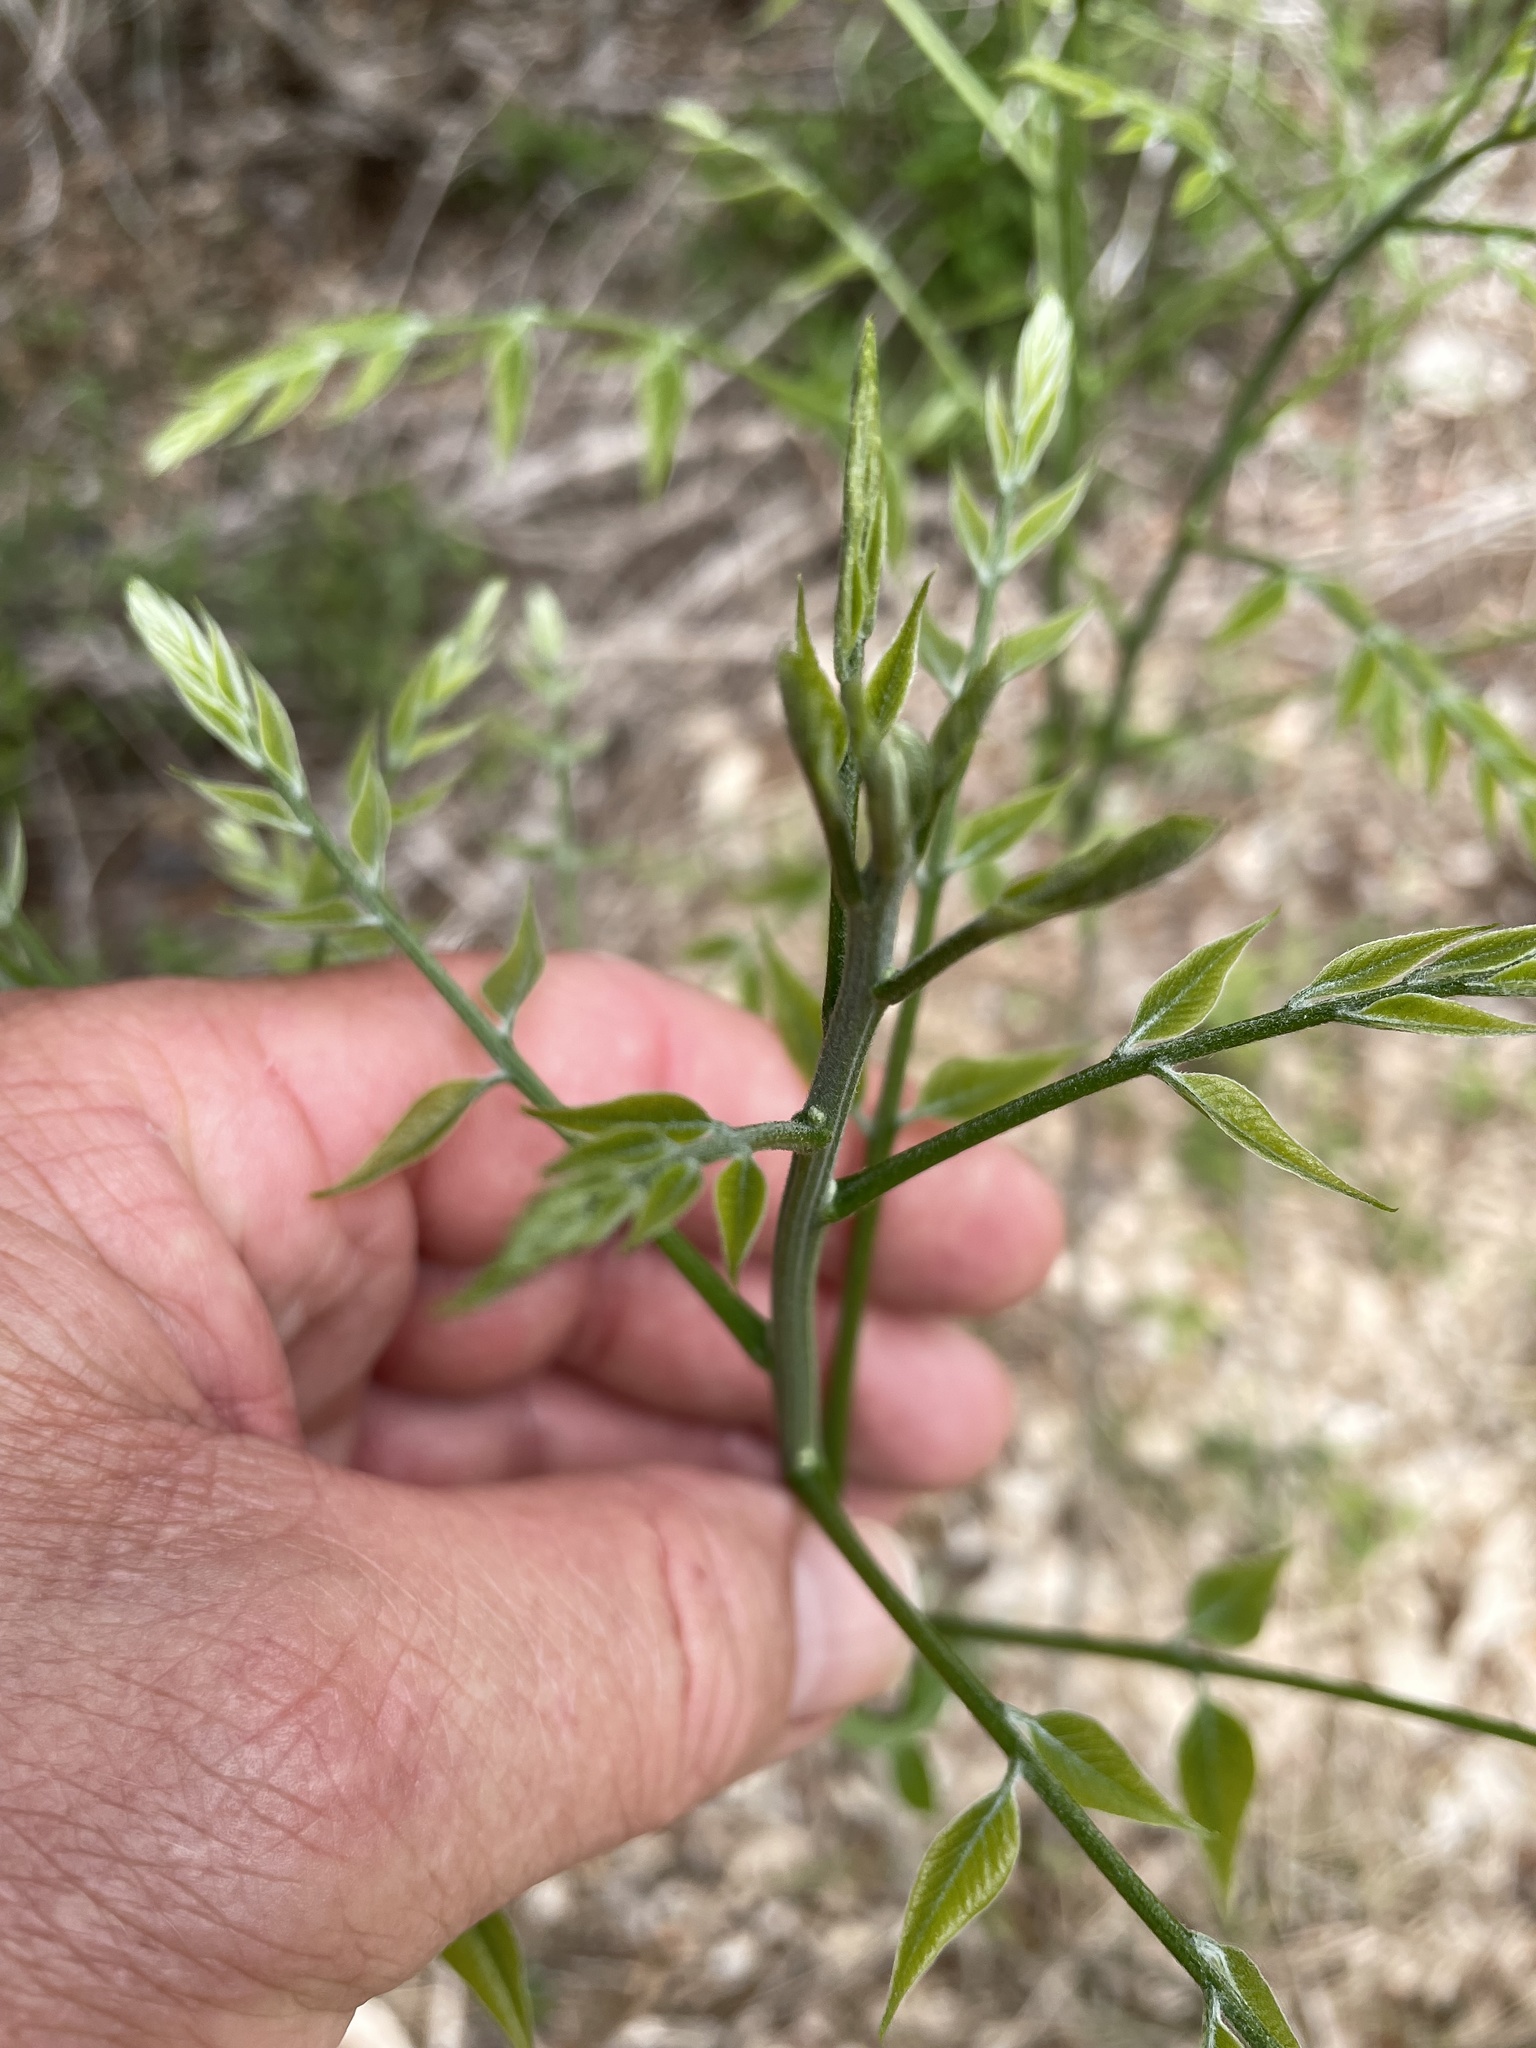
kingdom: Plantae
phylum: Tracheophyta
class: Magnoliopsida
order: Sapindales
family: Sapindaceae
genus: Sapindus
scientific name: Sapindus drummondii
